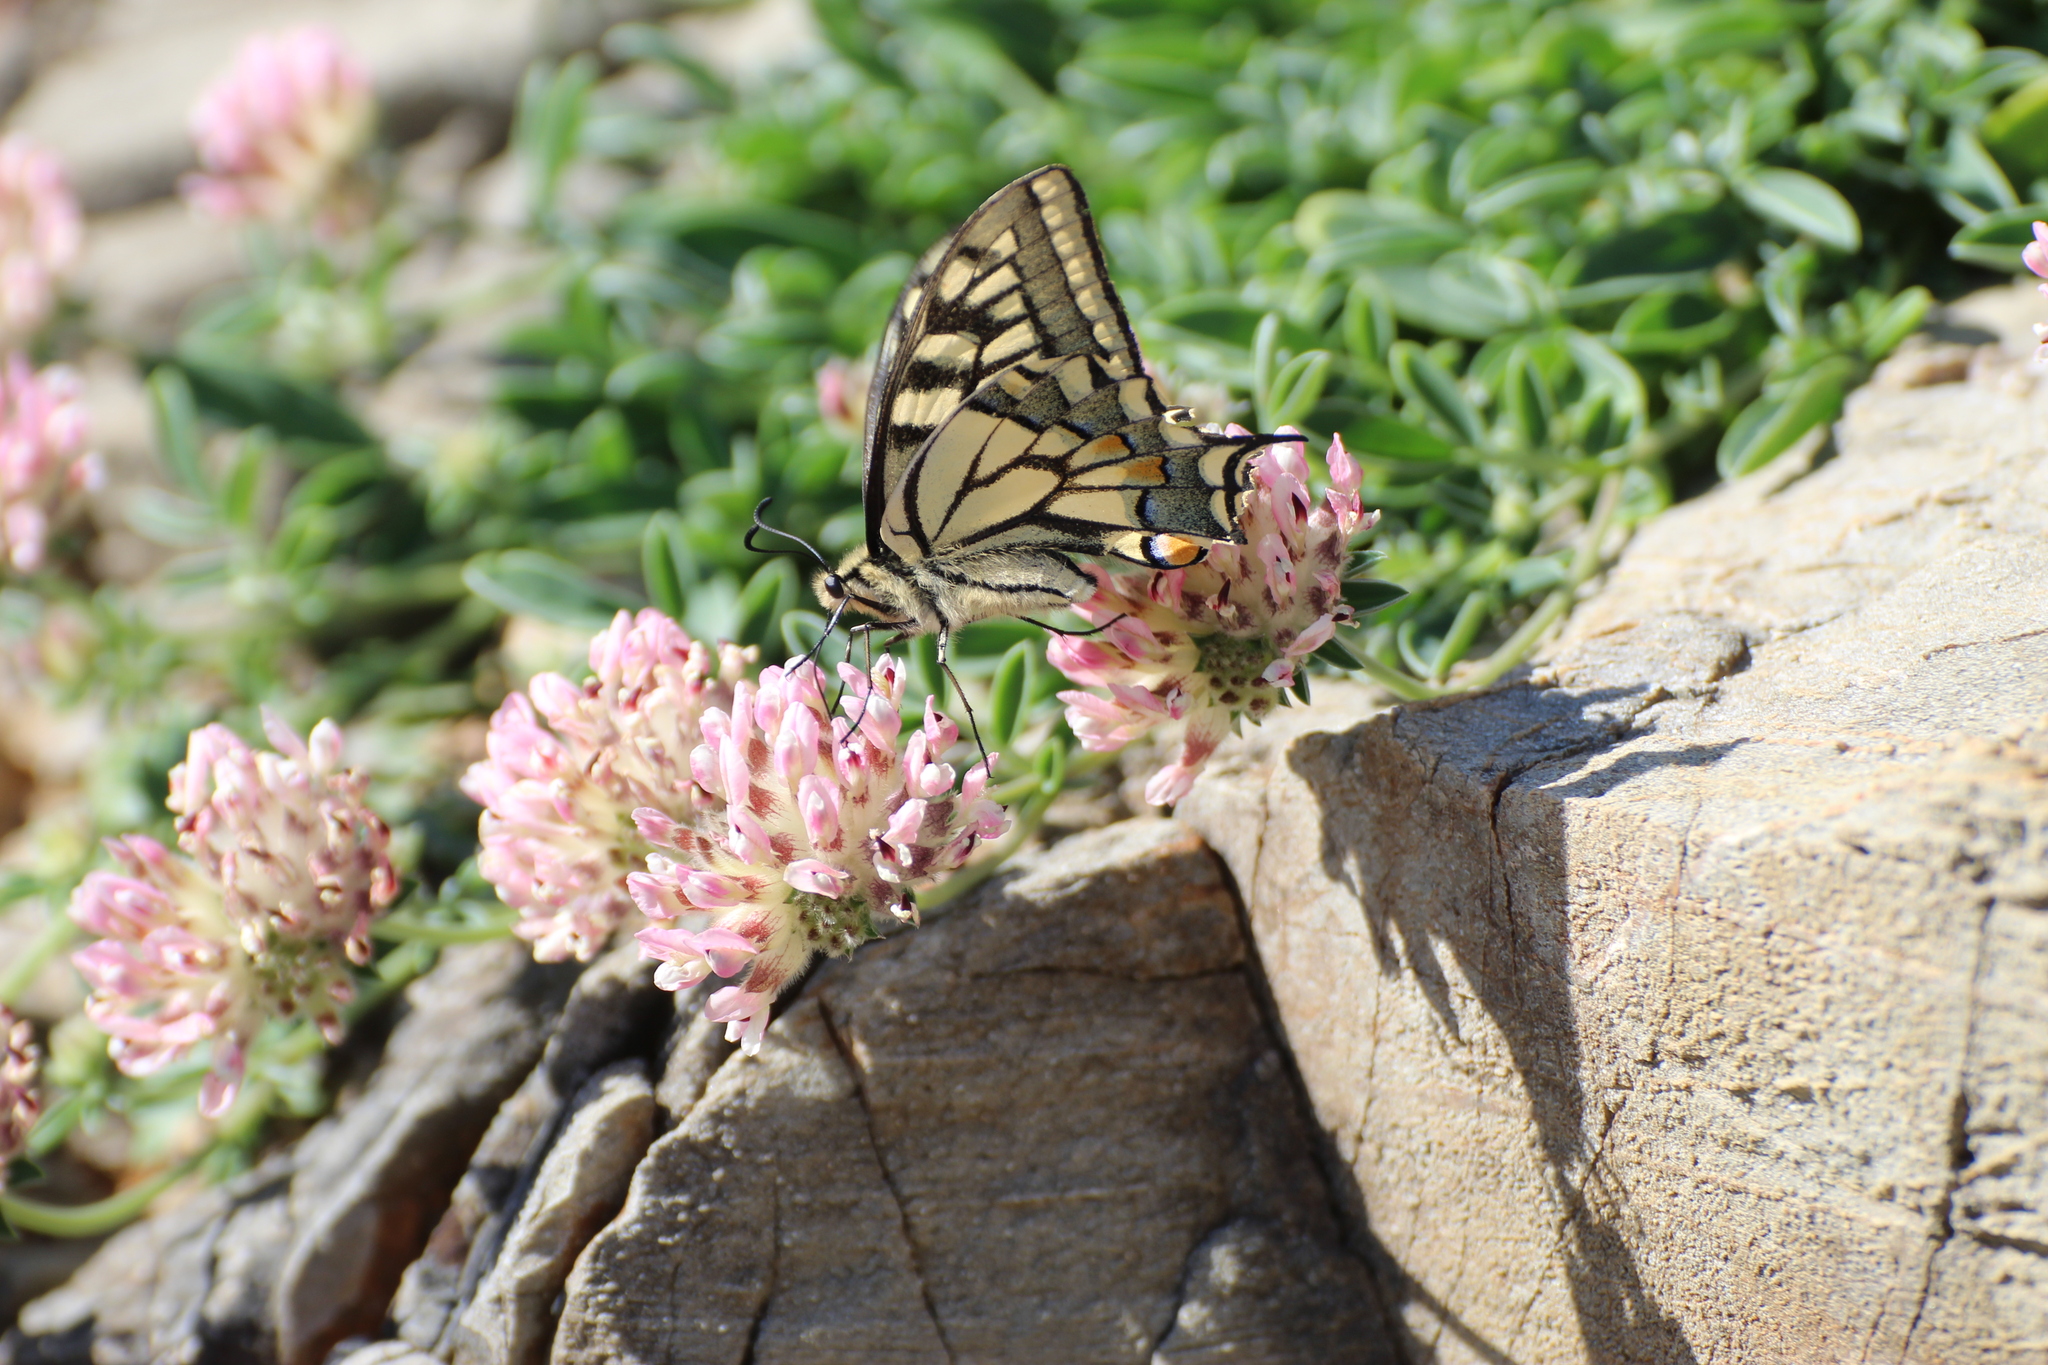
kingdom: Animalia
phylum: Arthropoda
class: Insecta
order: Lepidoptera
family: Papilionidae
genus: Papilio
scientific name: Papilio machaon
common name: Swallowtail
